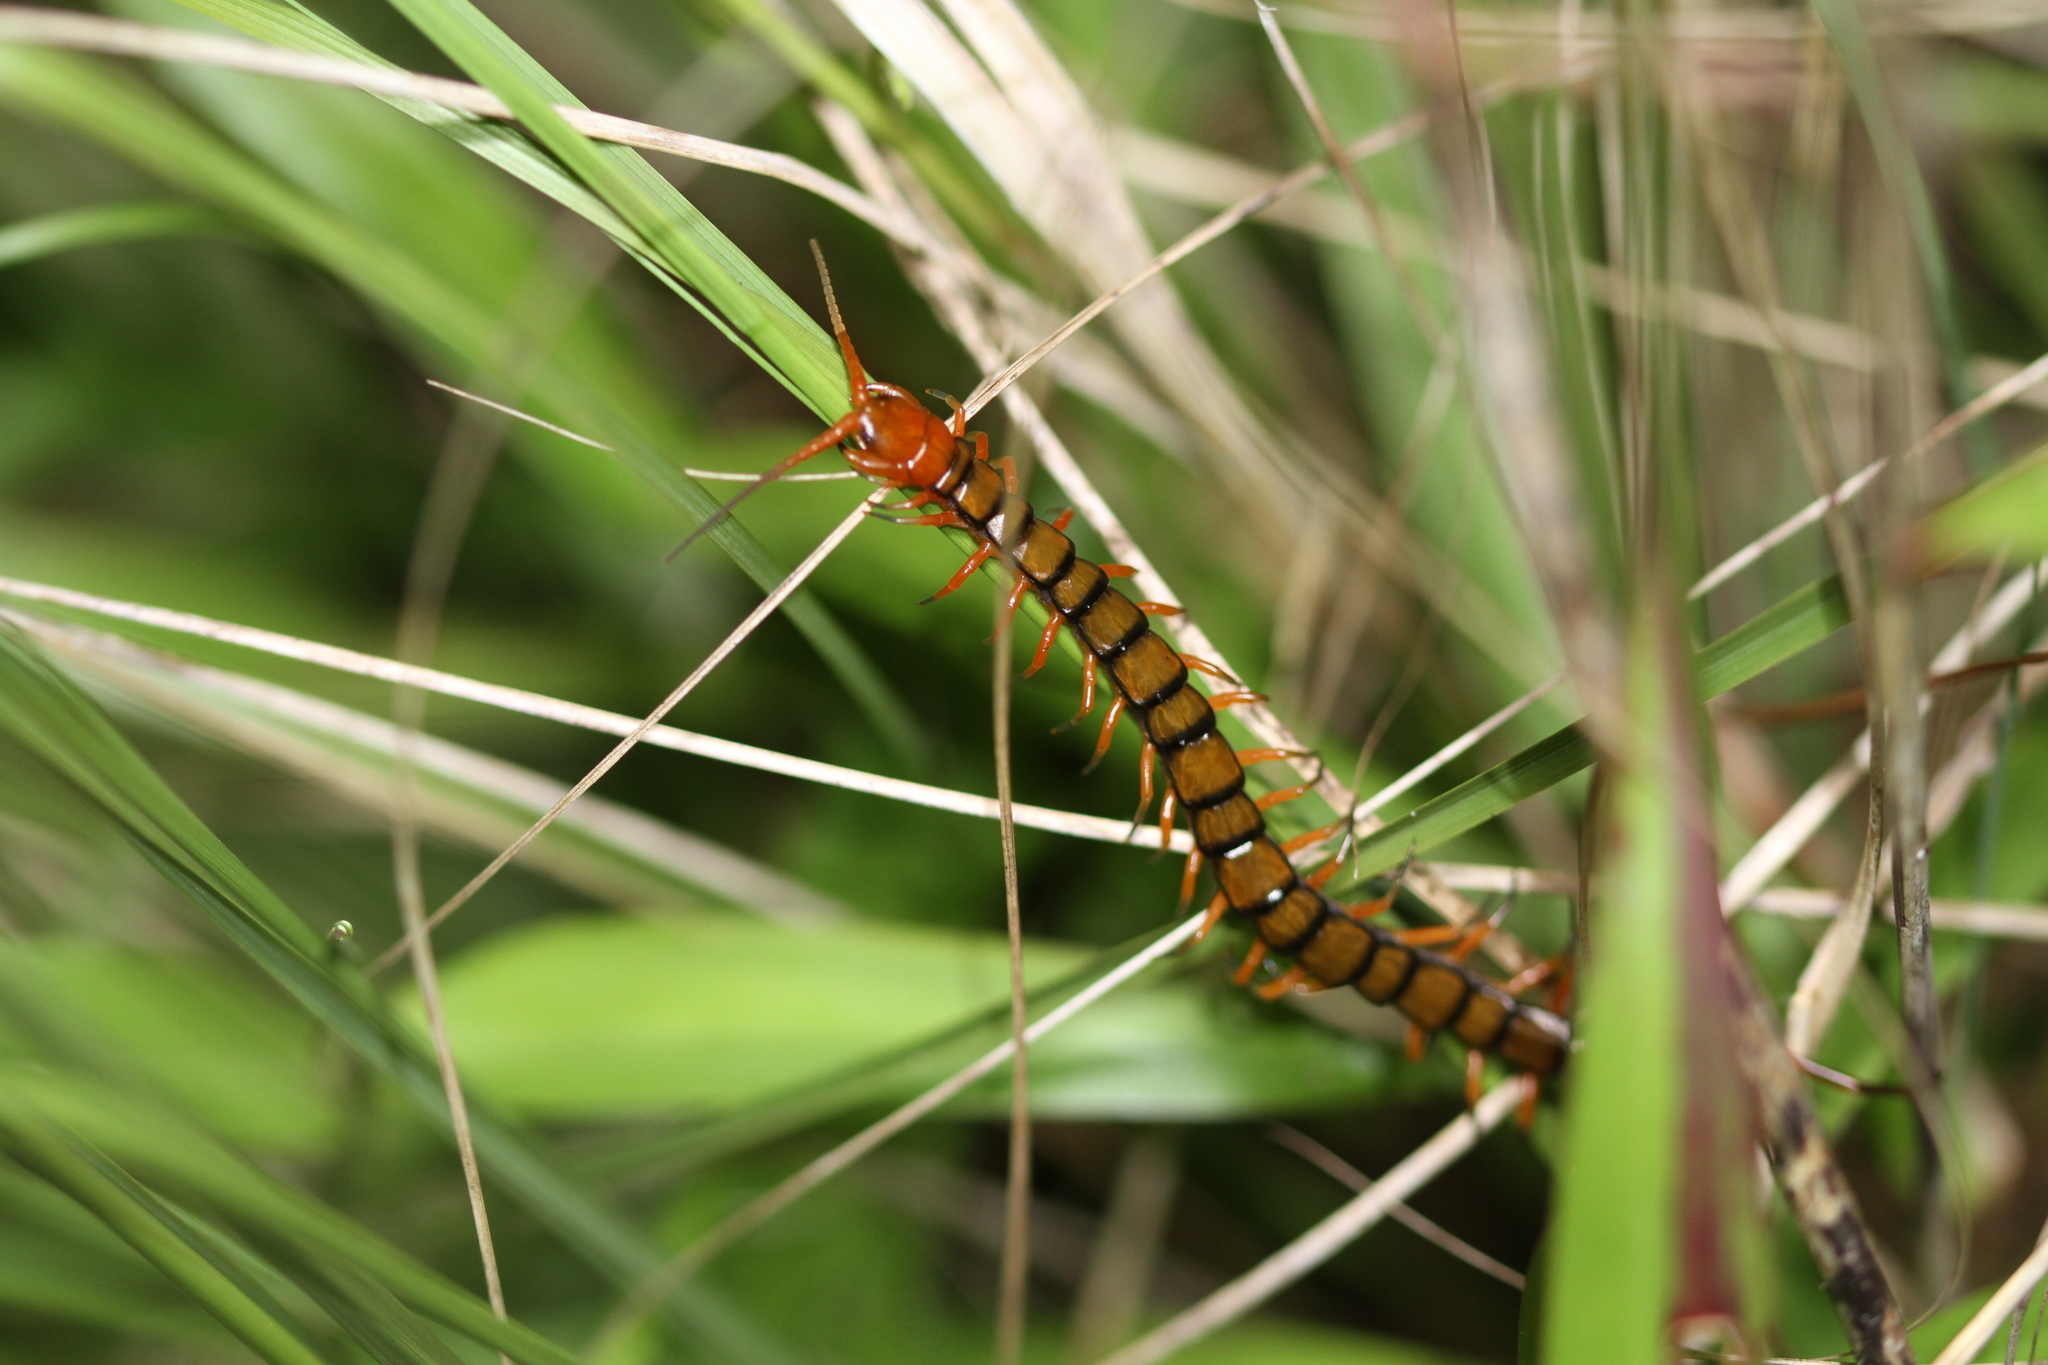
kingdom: Animalia
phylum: Arthropoda
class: Chilopoda
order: Scolopendromorpha
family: Scolopendridae
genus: Scolopendra
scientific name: Scolopendra subspinipes
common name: Centipede
